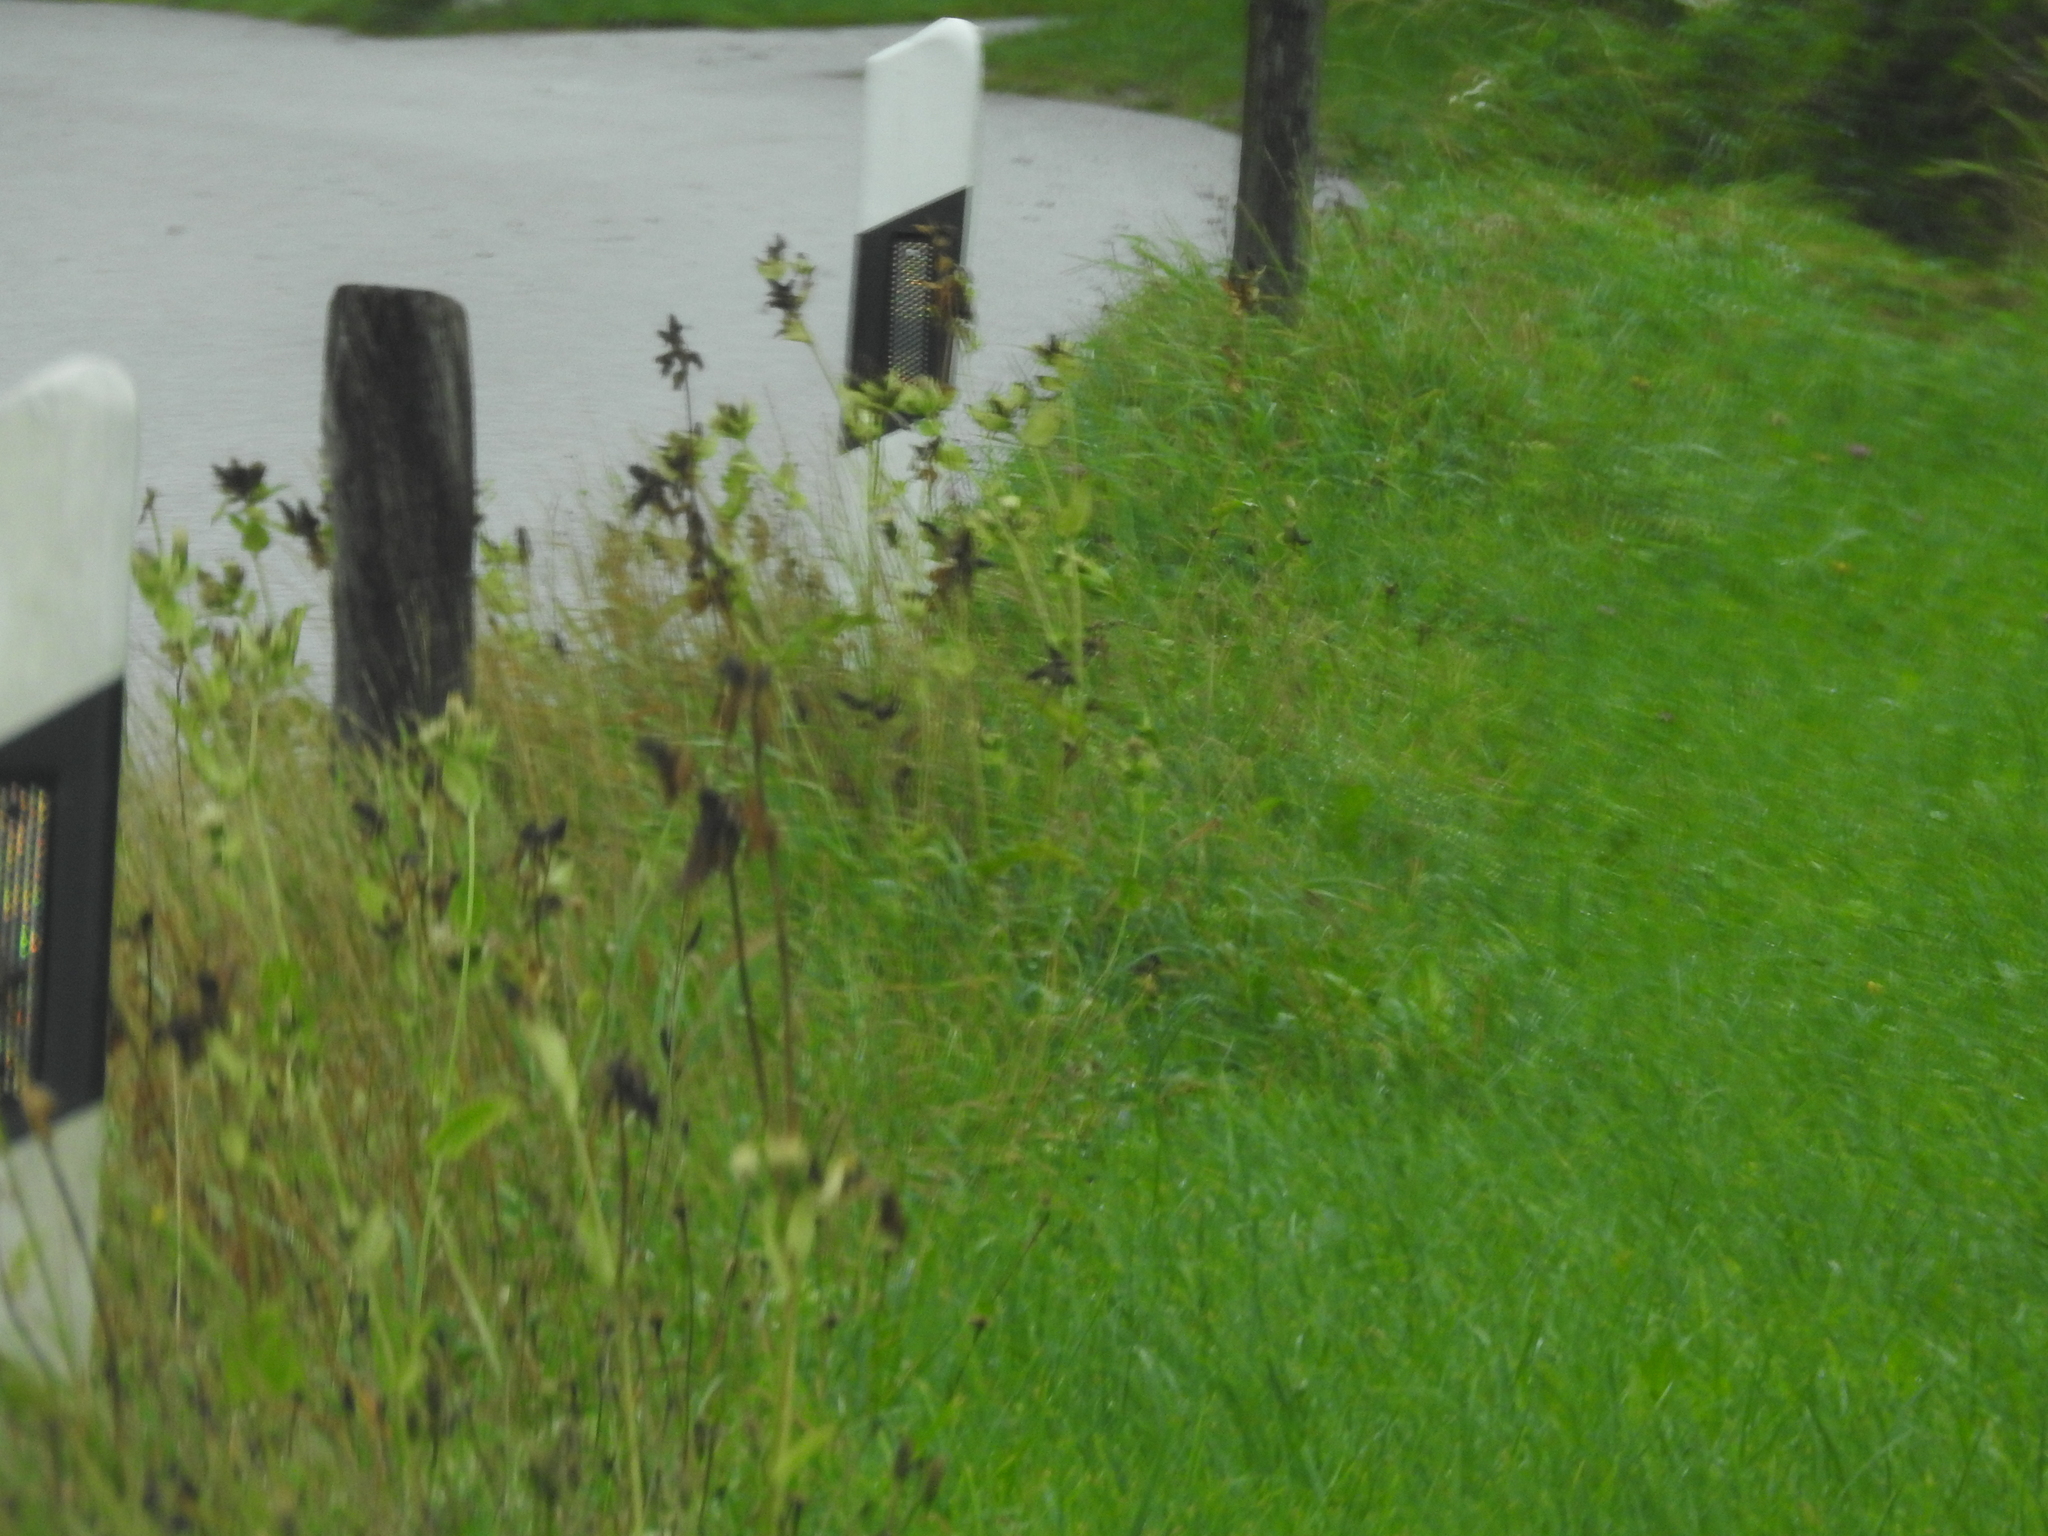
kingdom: Plantae
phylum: Tracheophyta
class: Magnoliopsida
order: Asterales
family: Asteraceae
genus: Cirsium
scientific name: Cirsium oleraceum
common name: Cabbage thistle
